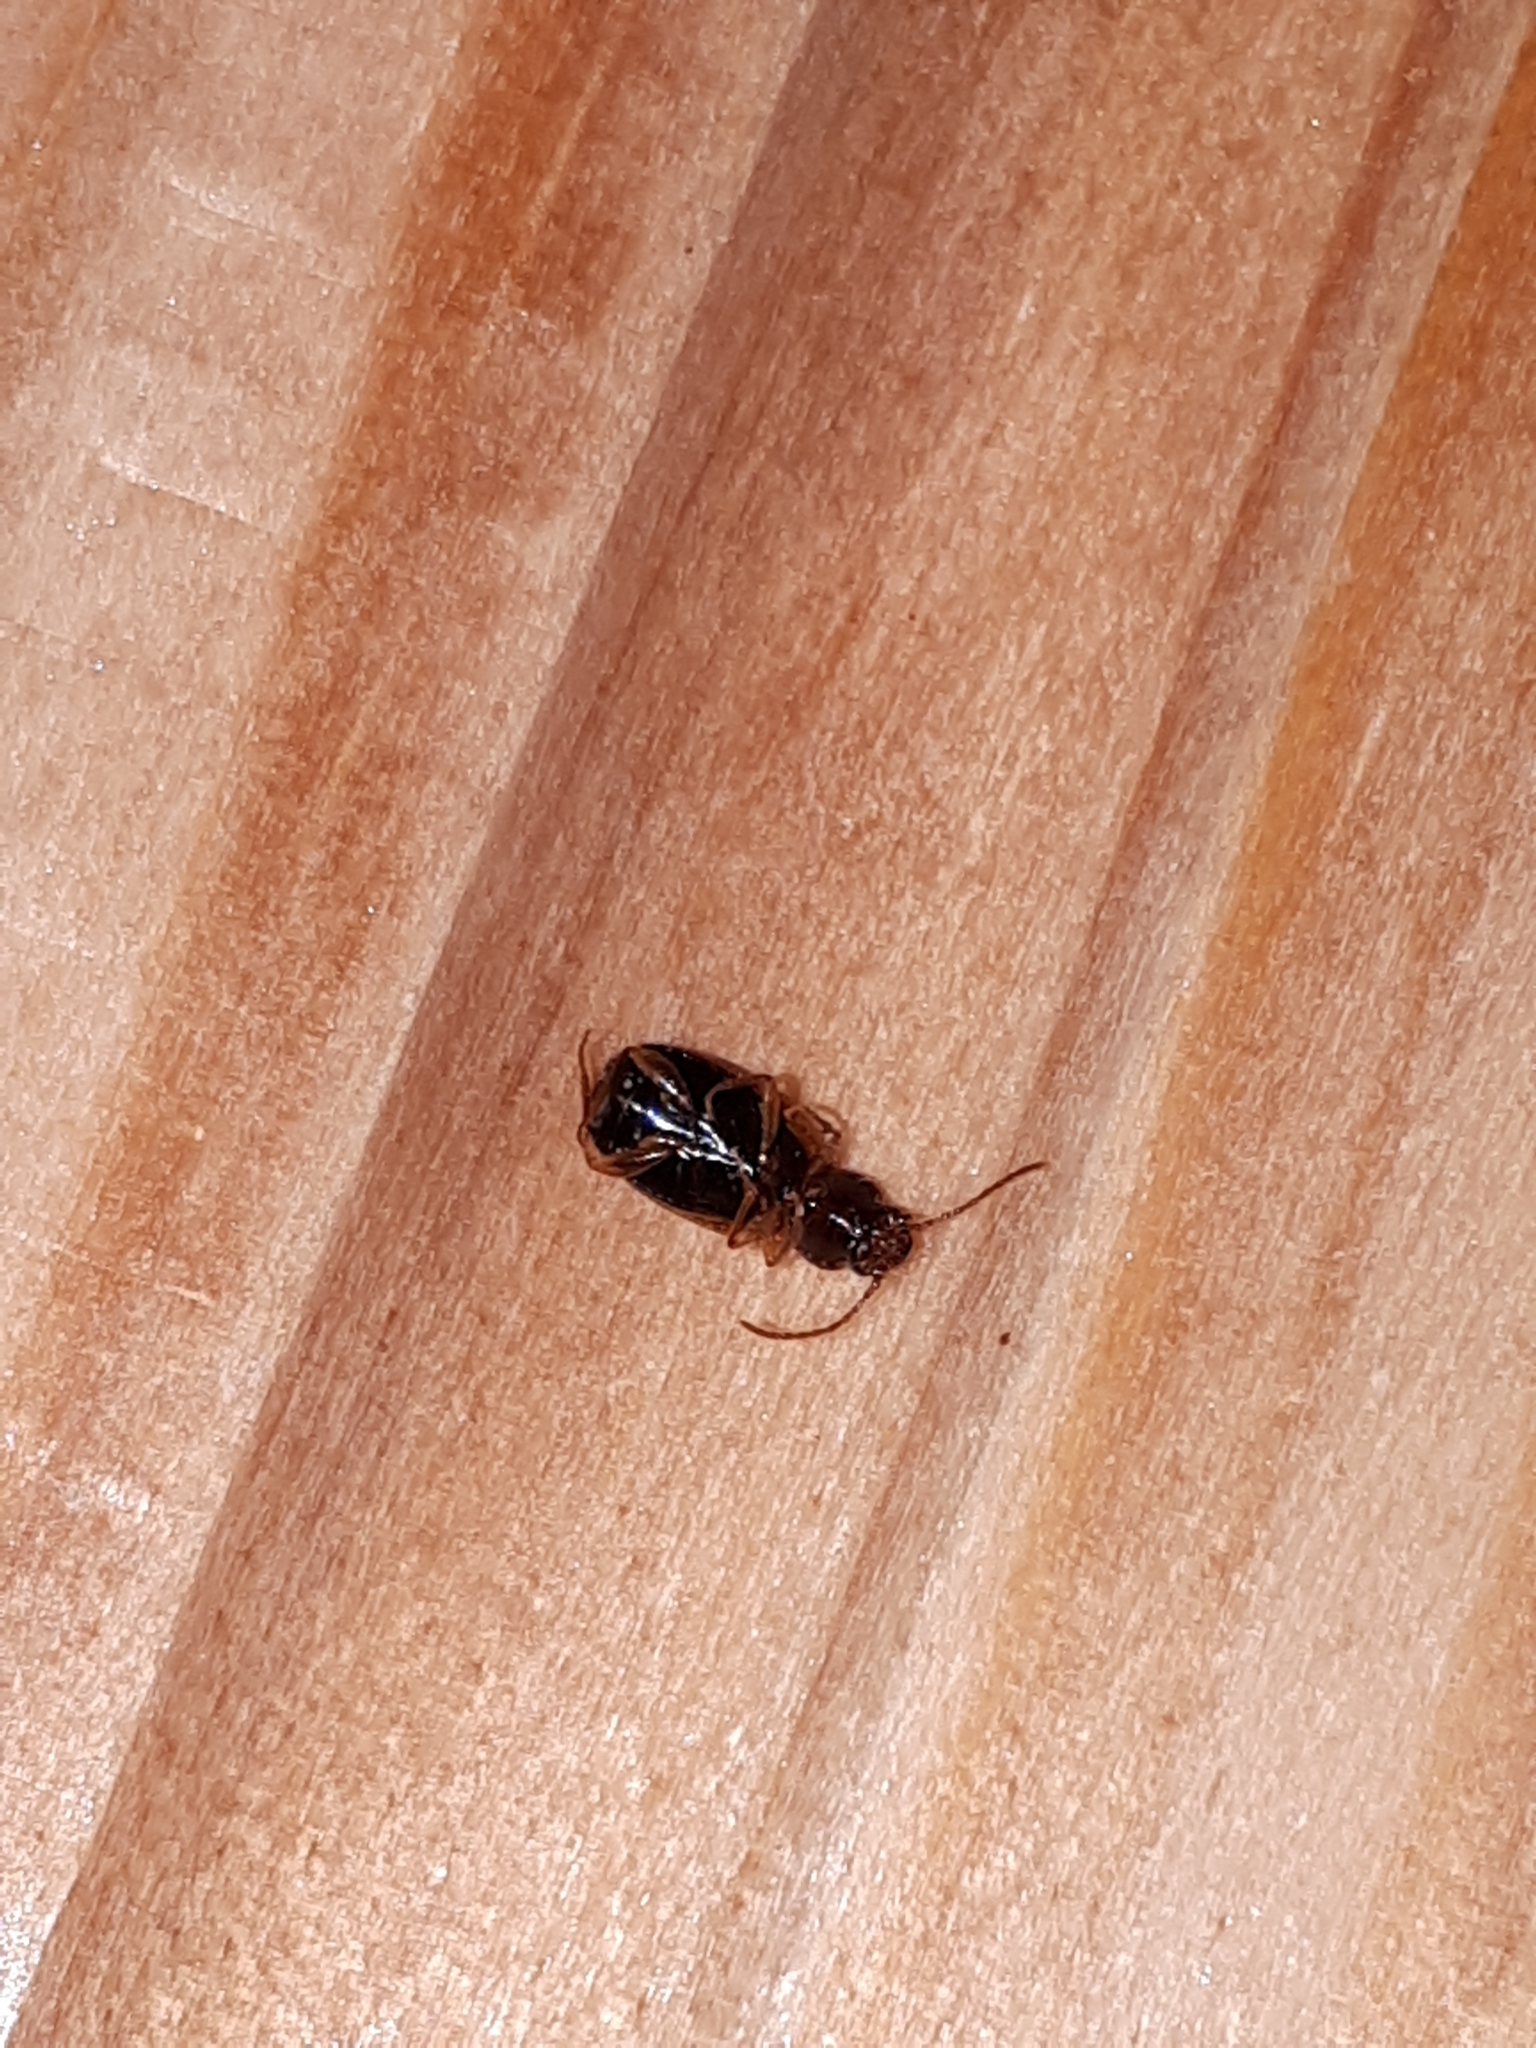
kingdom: Animalia
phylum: Arthropoda
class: Insecta
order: Coleoptera
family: Carabidae
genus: Trechus
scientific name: Trechus
